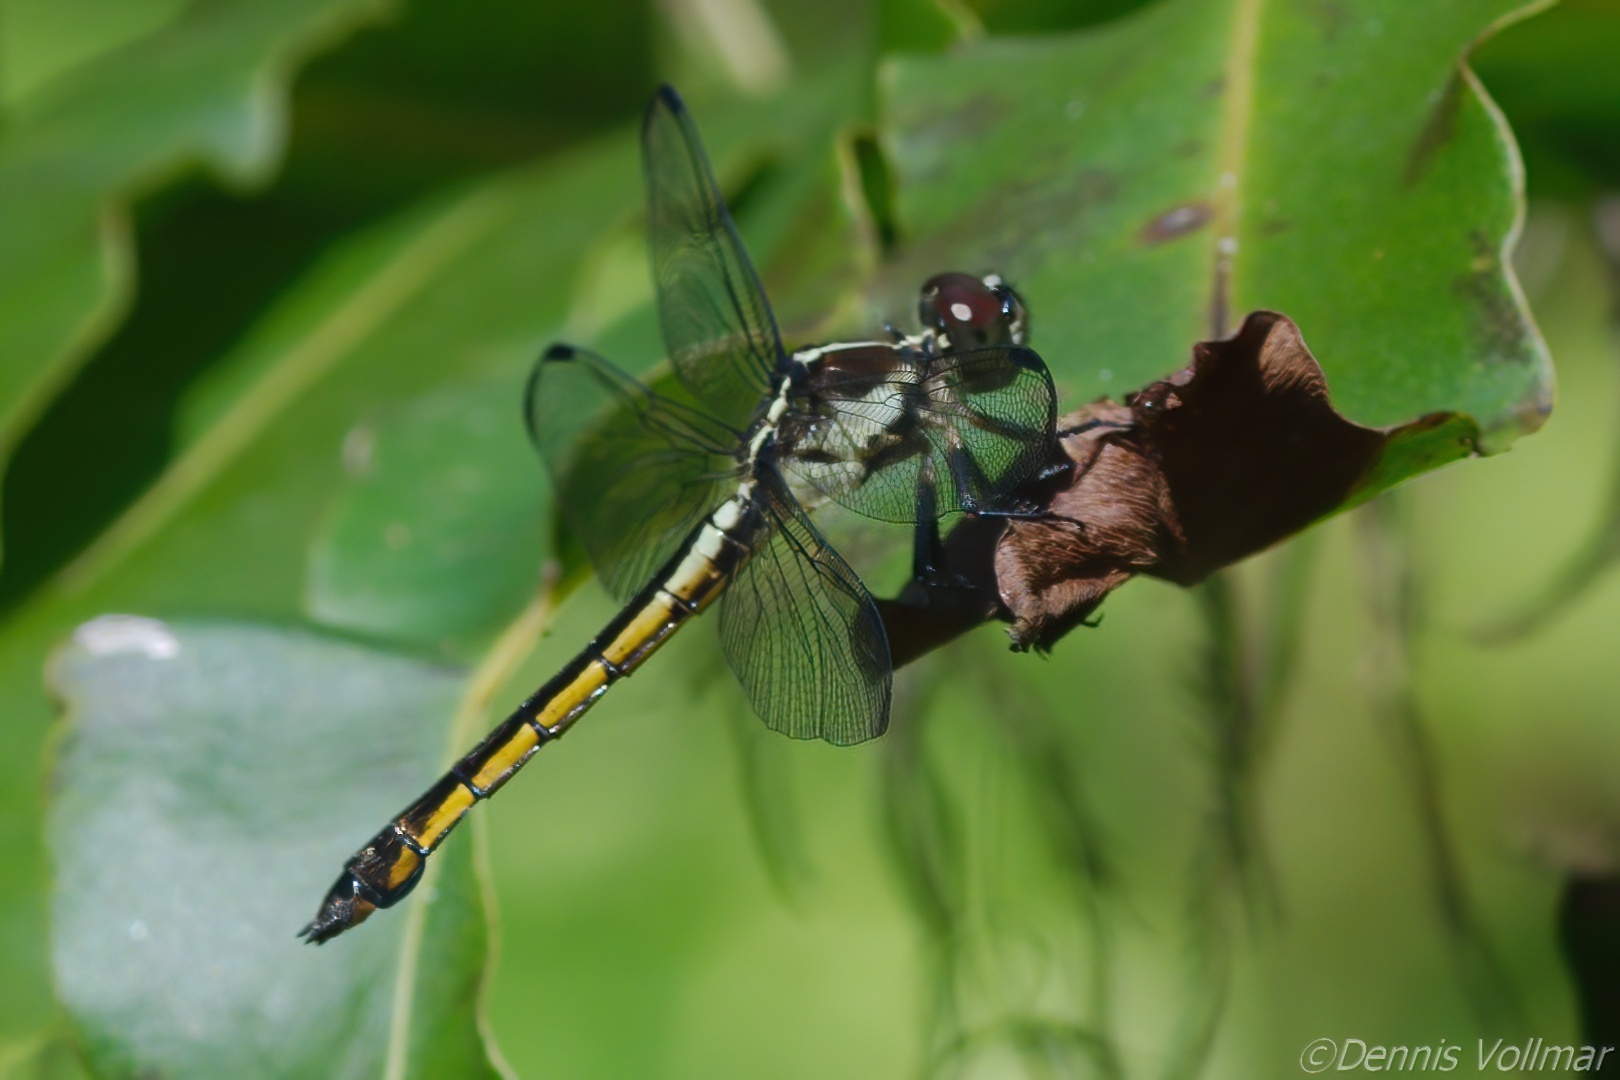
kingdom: Animalia
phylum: Arthropoda
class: Insecta
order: Odonata
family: Libellulidae
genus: Libellula
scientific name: Libellula incesta
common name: Slaty skimmer
